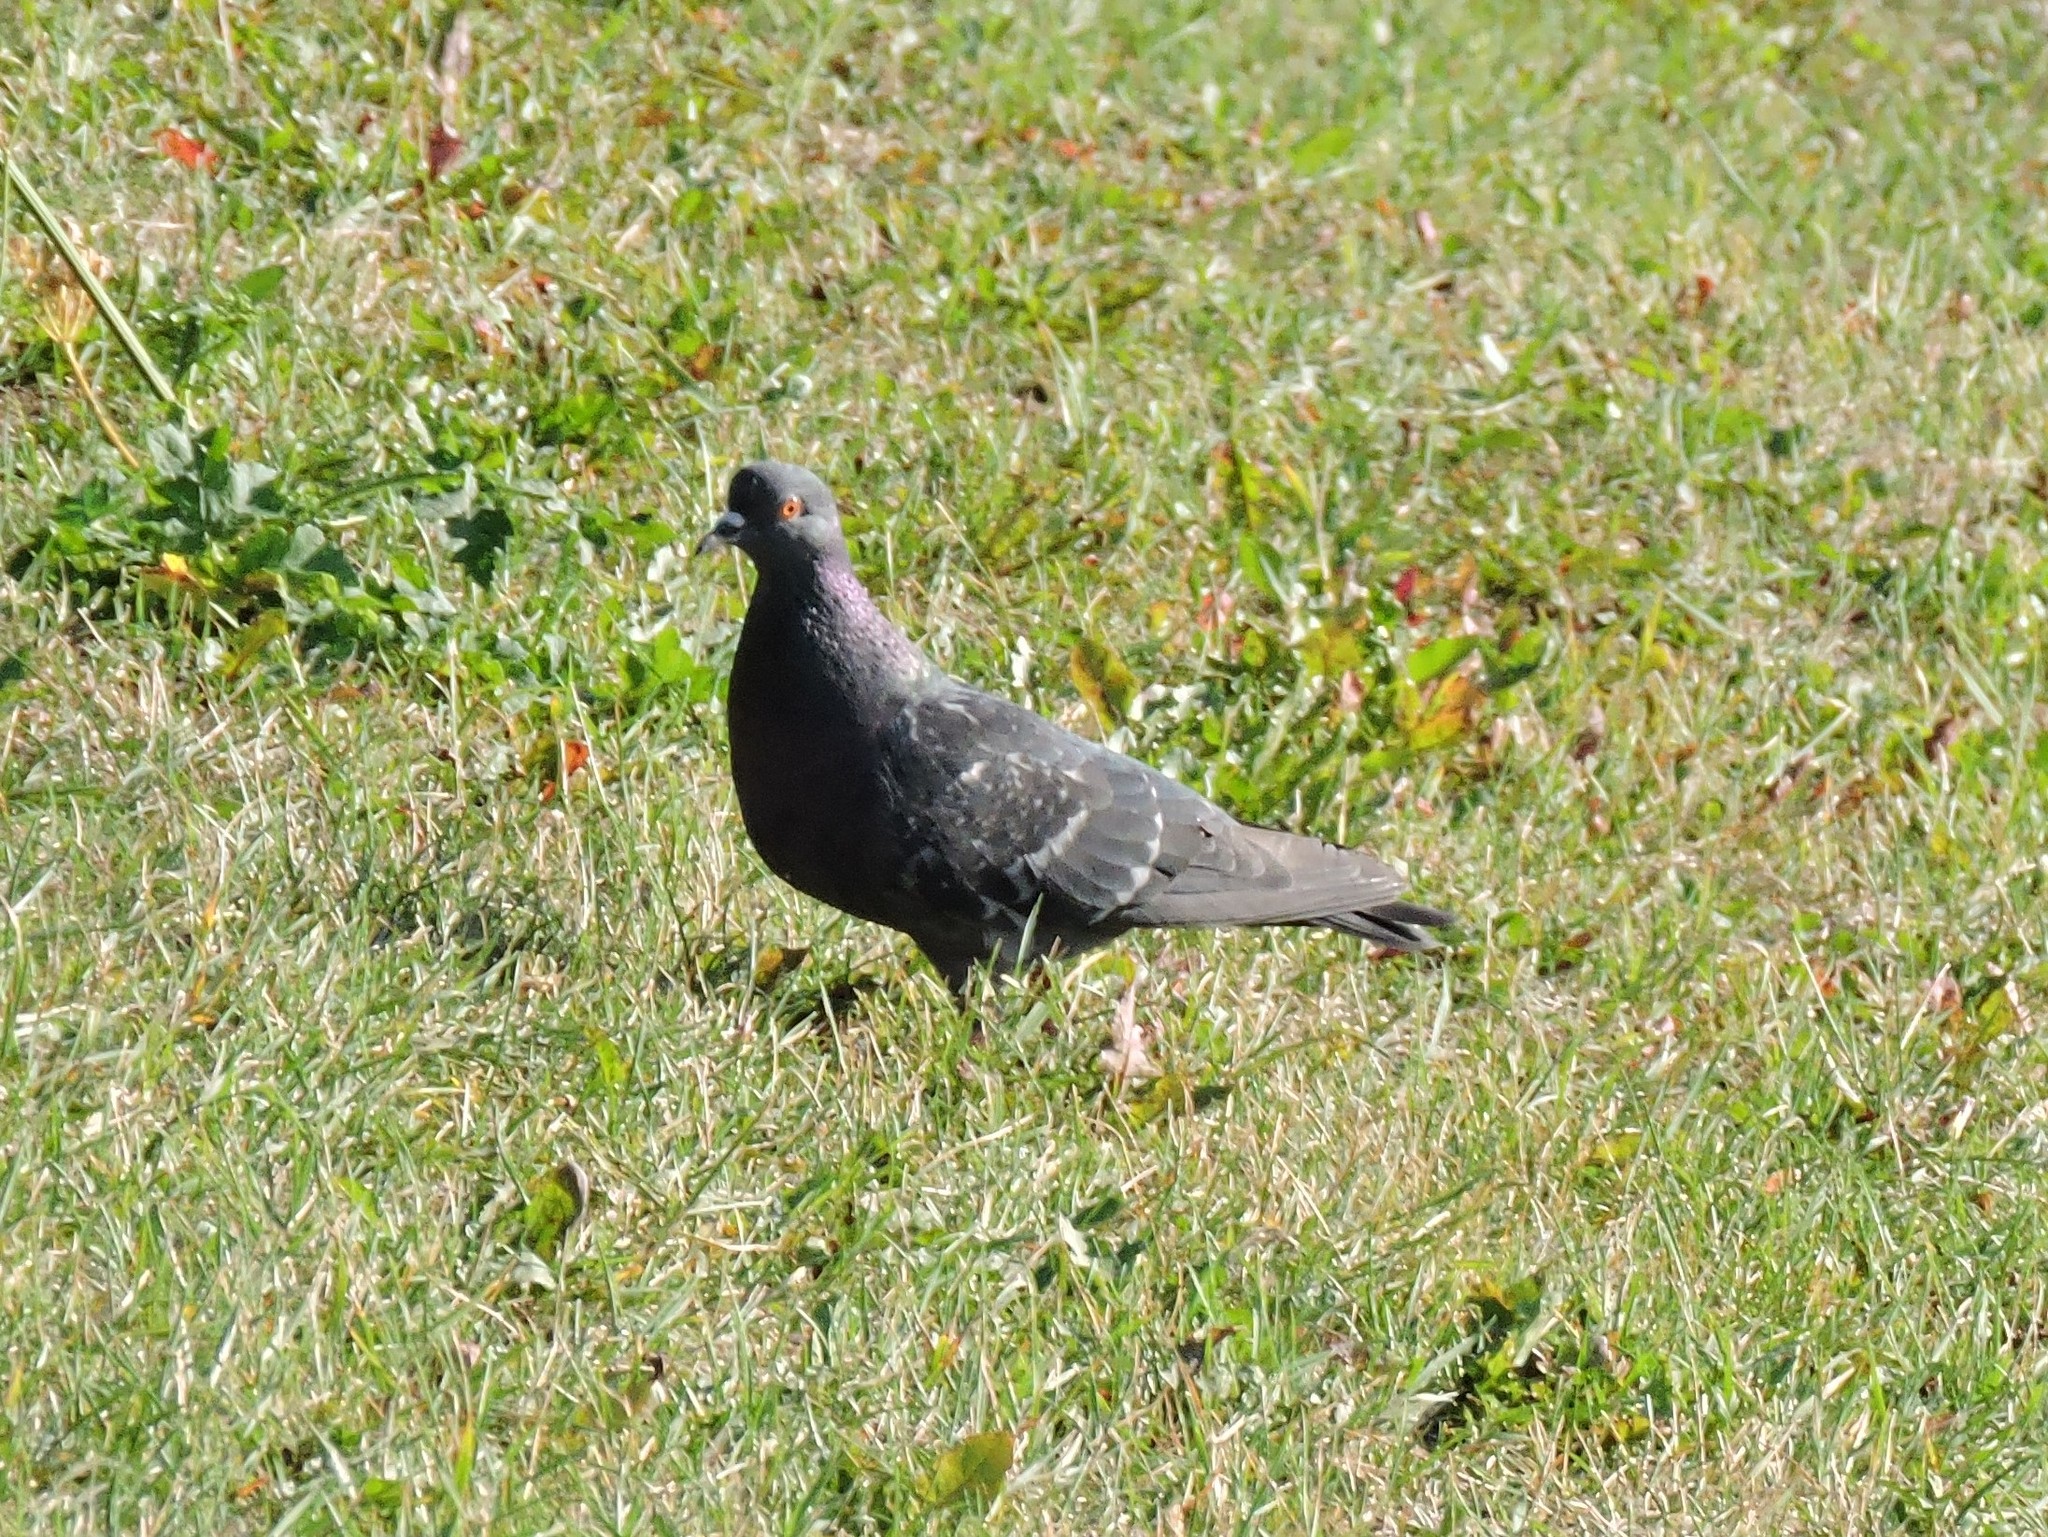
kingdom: Animalia
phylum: Chordata
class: Aves
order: Columbiformes
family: Columbidae
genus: Columba
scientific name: Columba livia
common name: Rock pigeon
